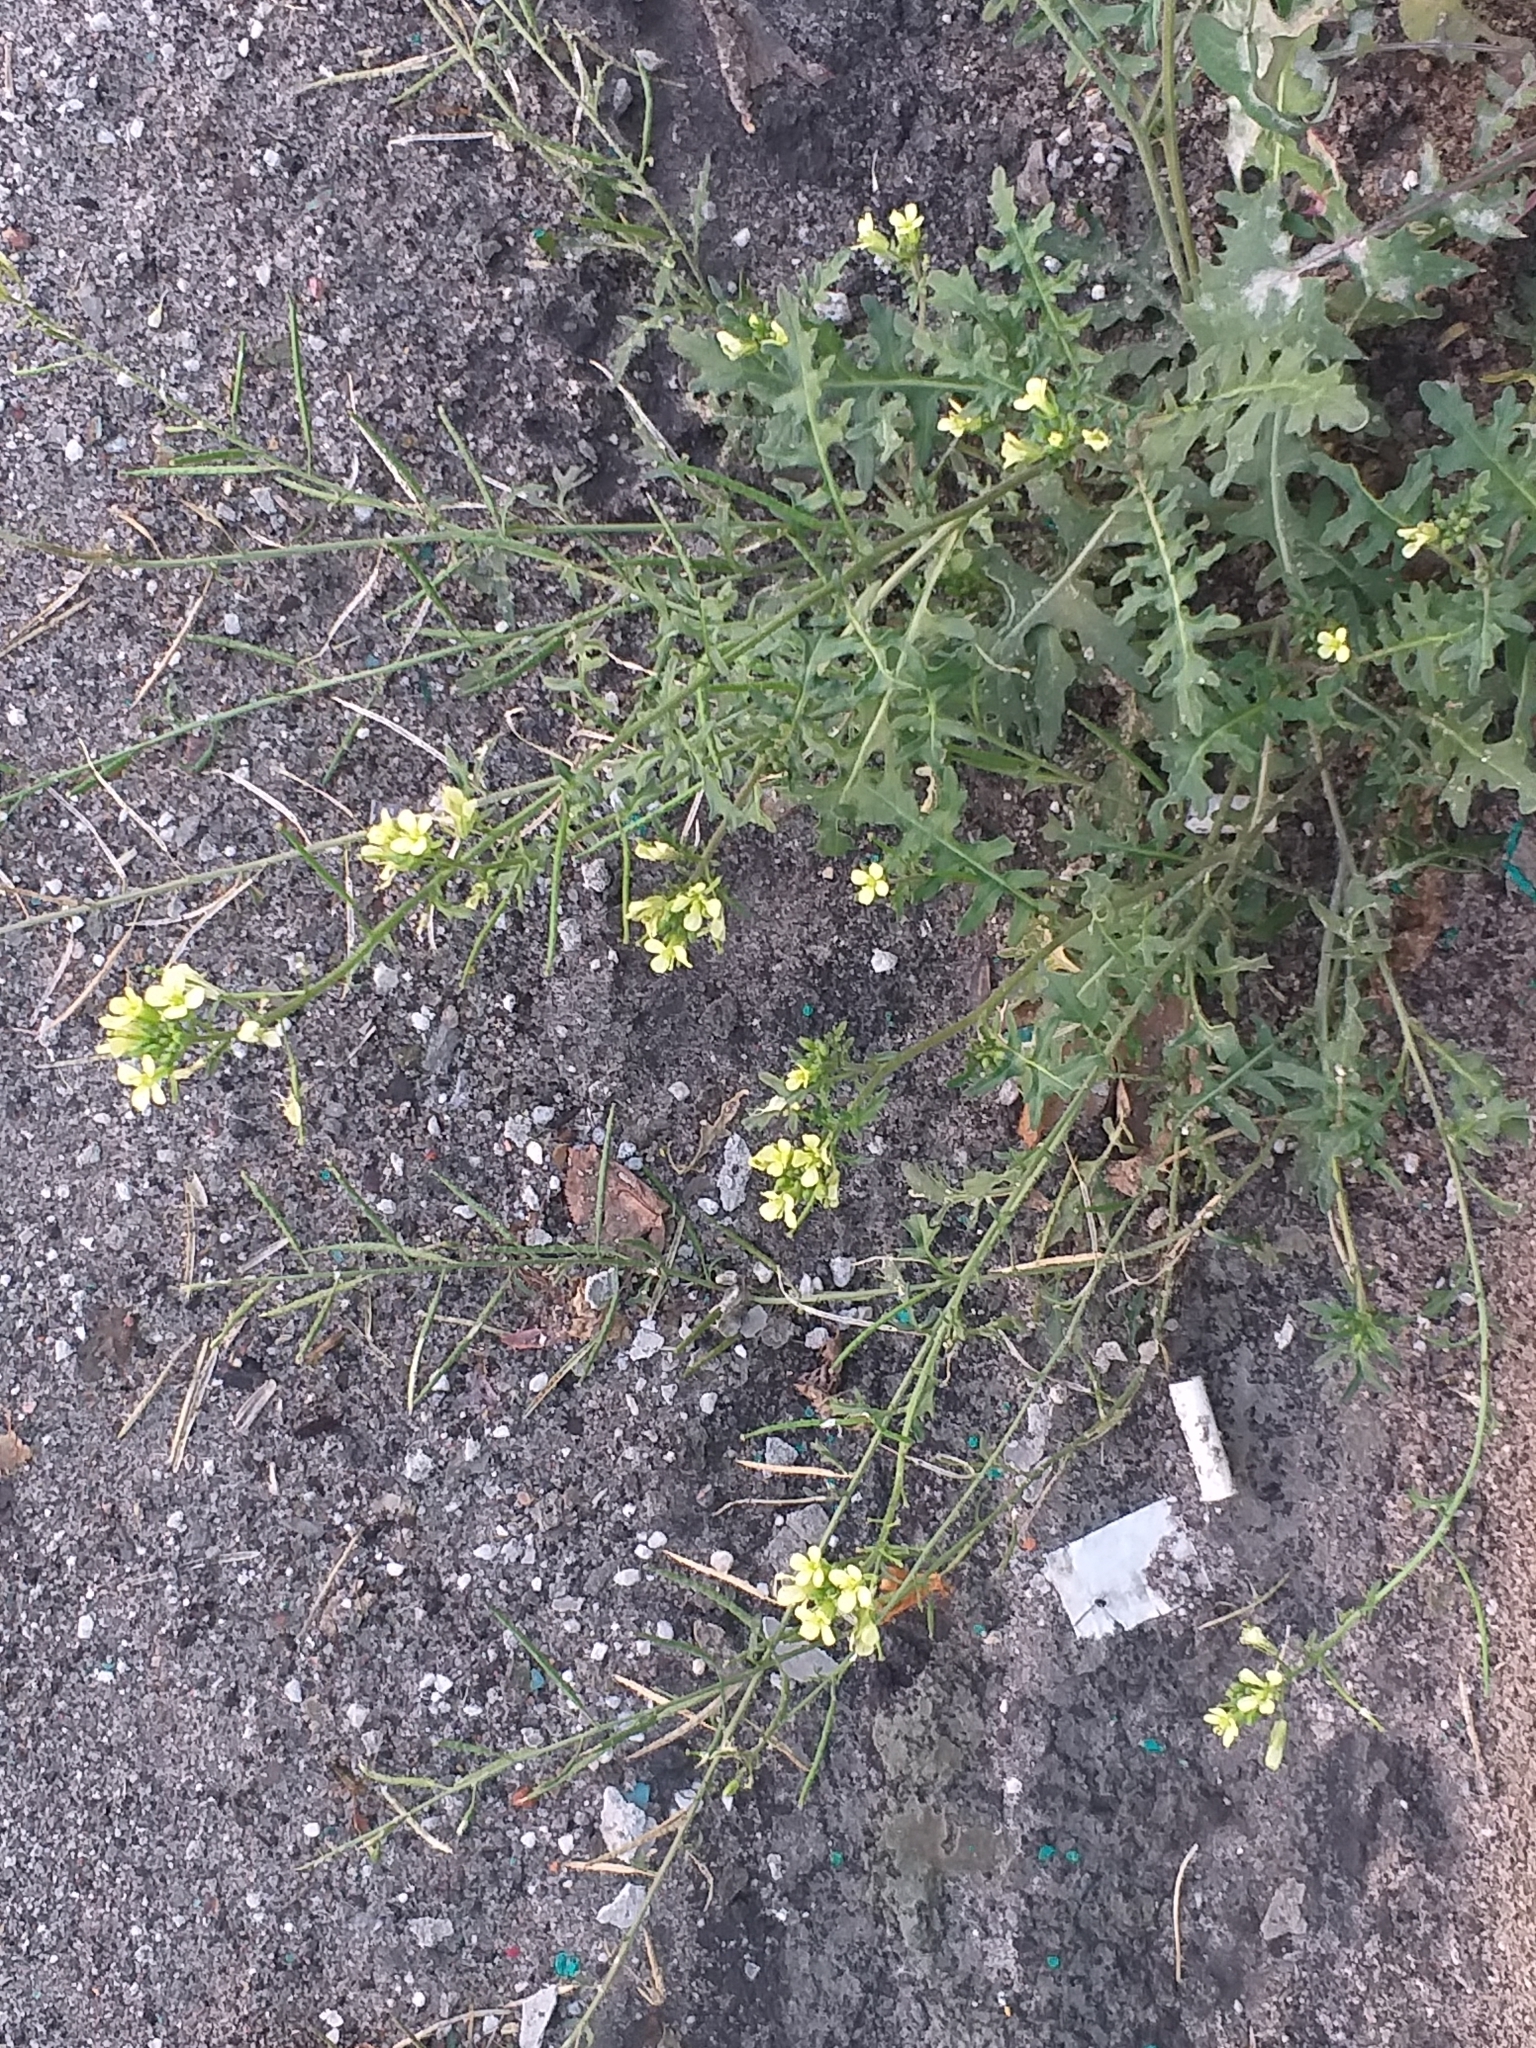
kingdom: Plantae
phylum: Tracheophyta
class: Magnoliopsida
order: Brassicales
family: Brassicaceae
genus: Erucastrum
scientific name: Erucastrum gallicum
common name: Hairy rocket
